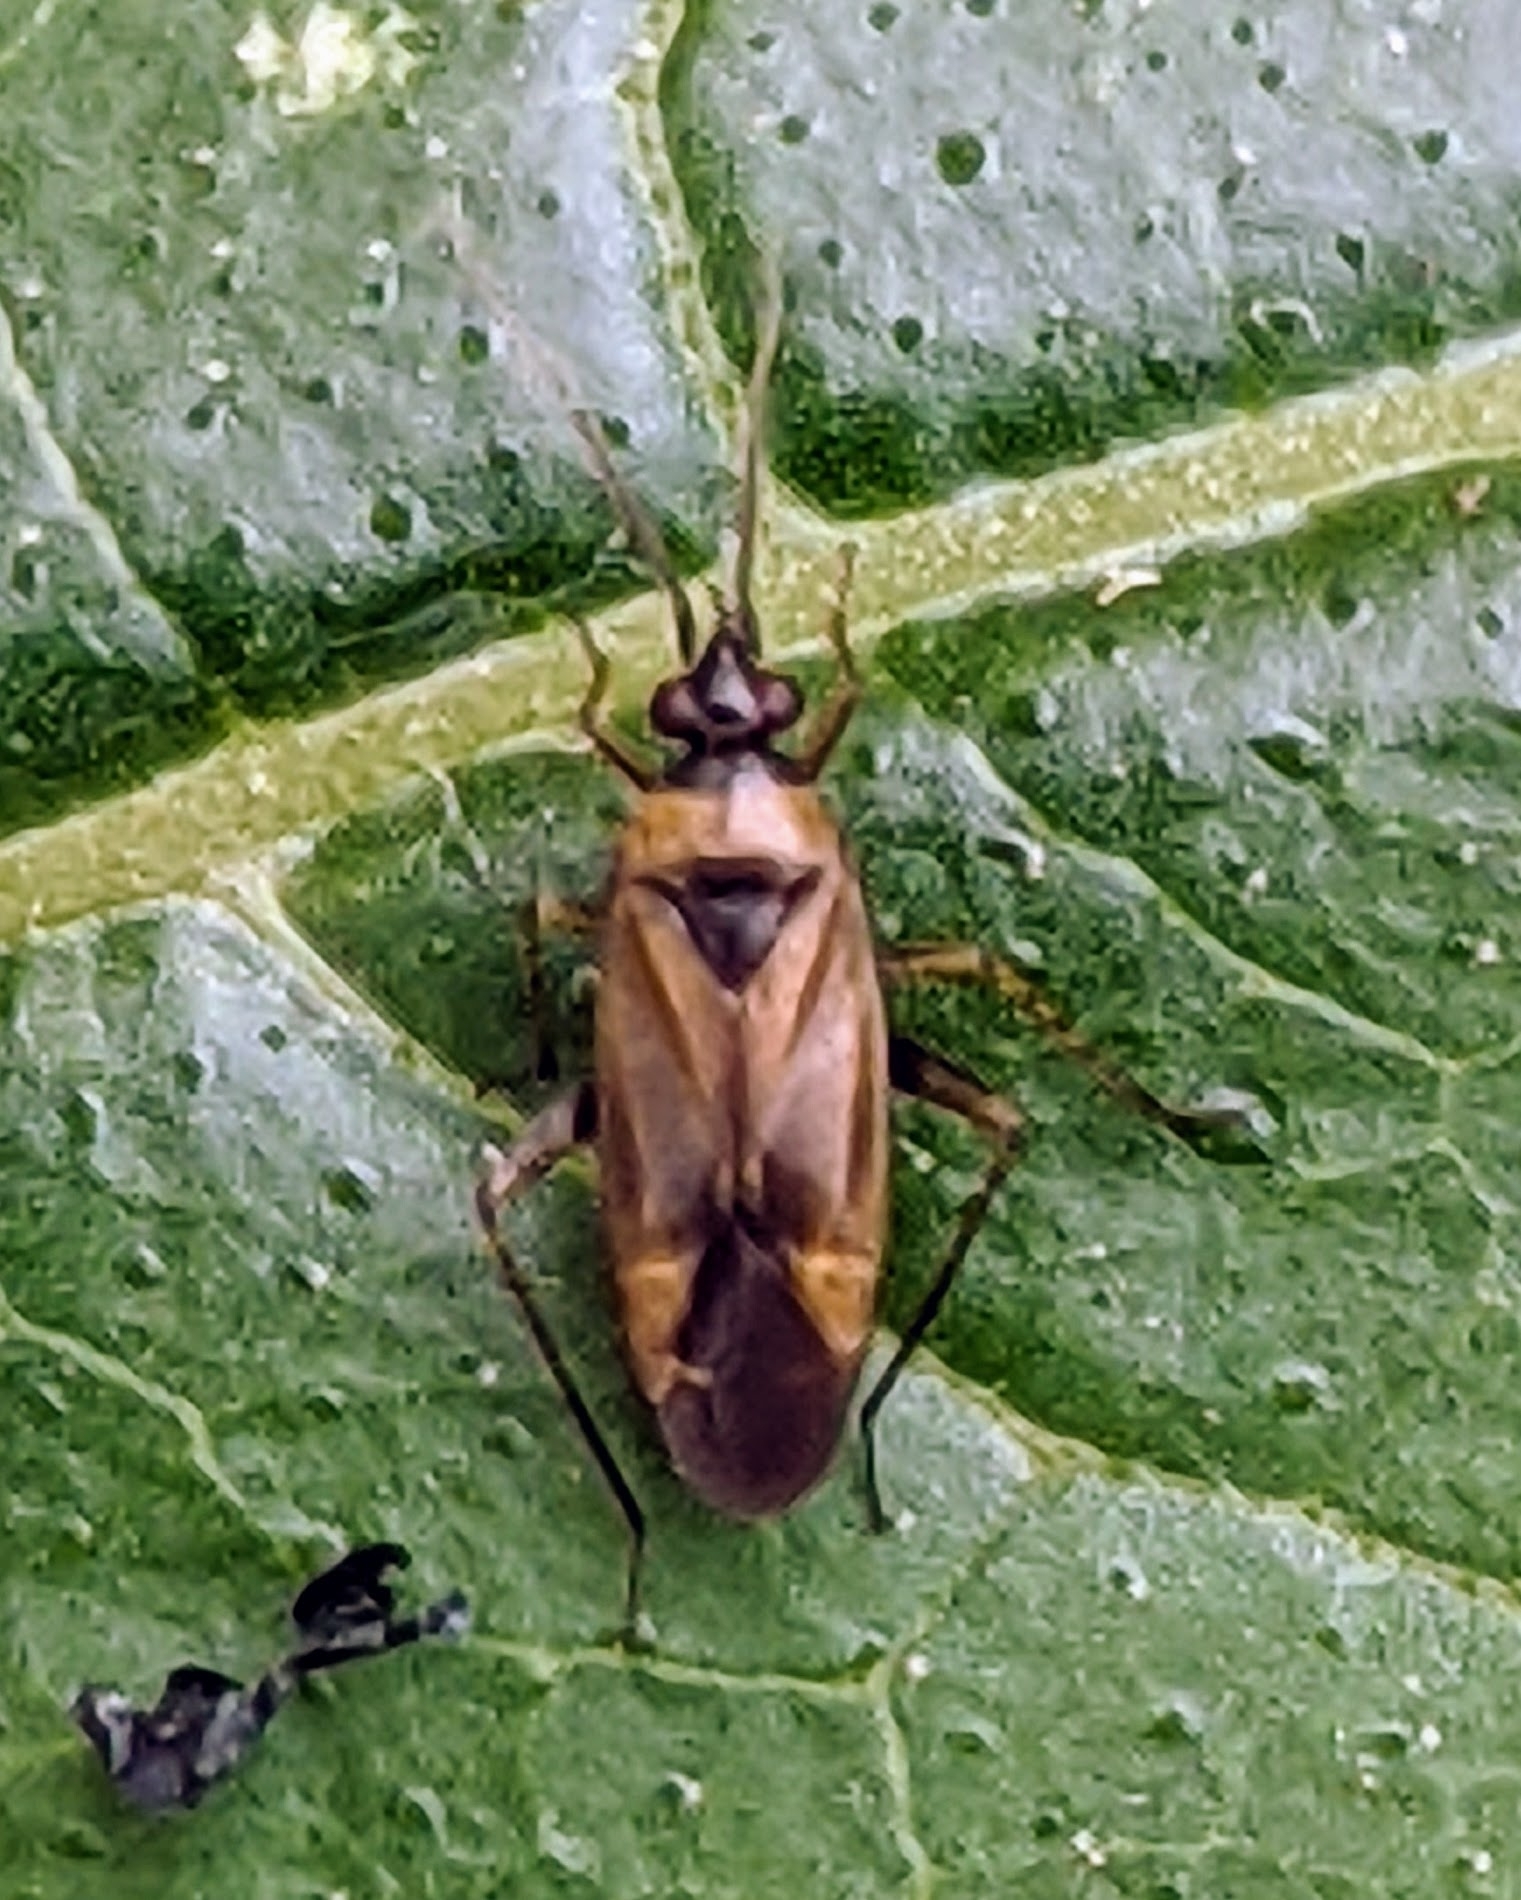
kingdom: Animalia
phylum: Arthropoda
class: Insecta
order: Hemiptera
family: Miridae
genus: Plagiognathus
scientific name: Plagiognathus arbustorum
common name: Plant bug
